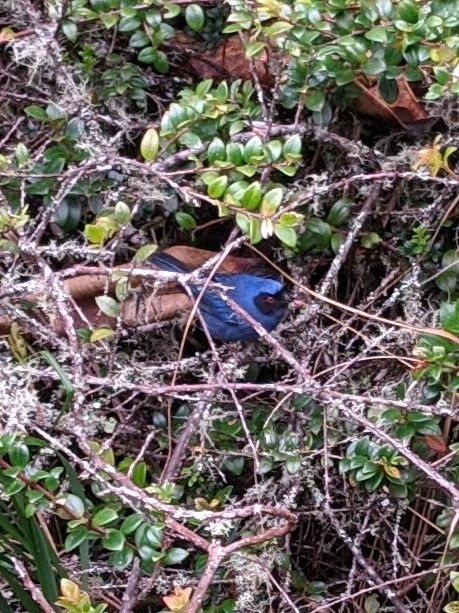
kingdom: Animalia
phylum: Chordata
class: Aves
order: Passeriformes
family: Thraupidae
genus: Diglossa
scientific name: Diglossa cyanea
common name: Masked flowerpiercer
